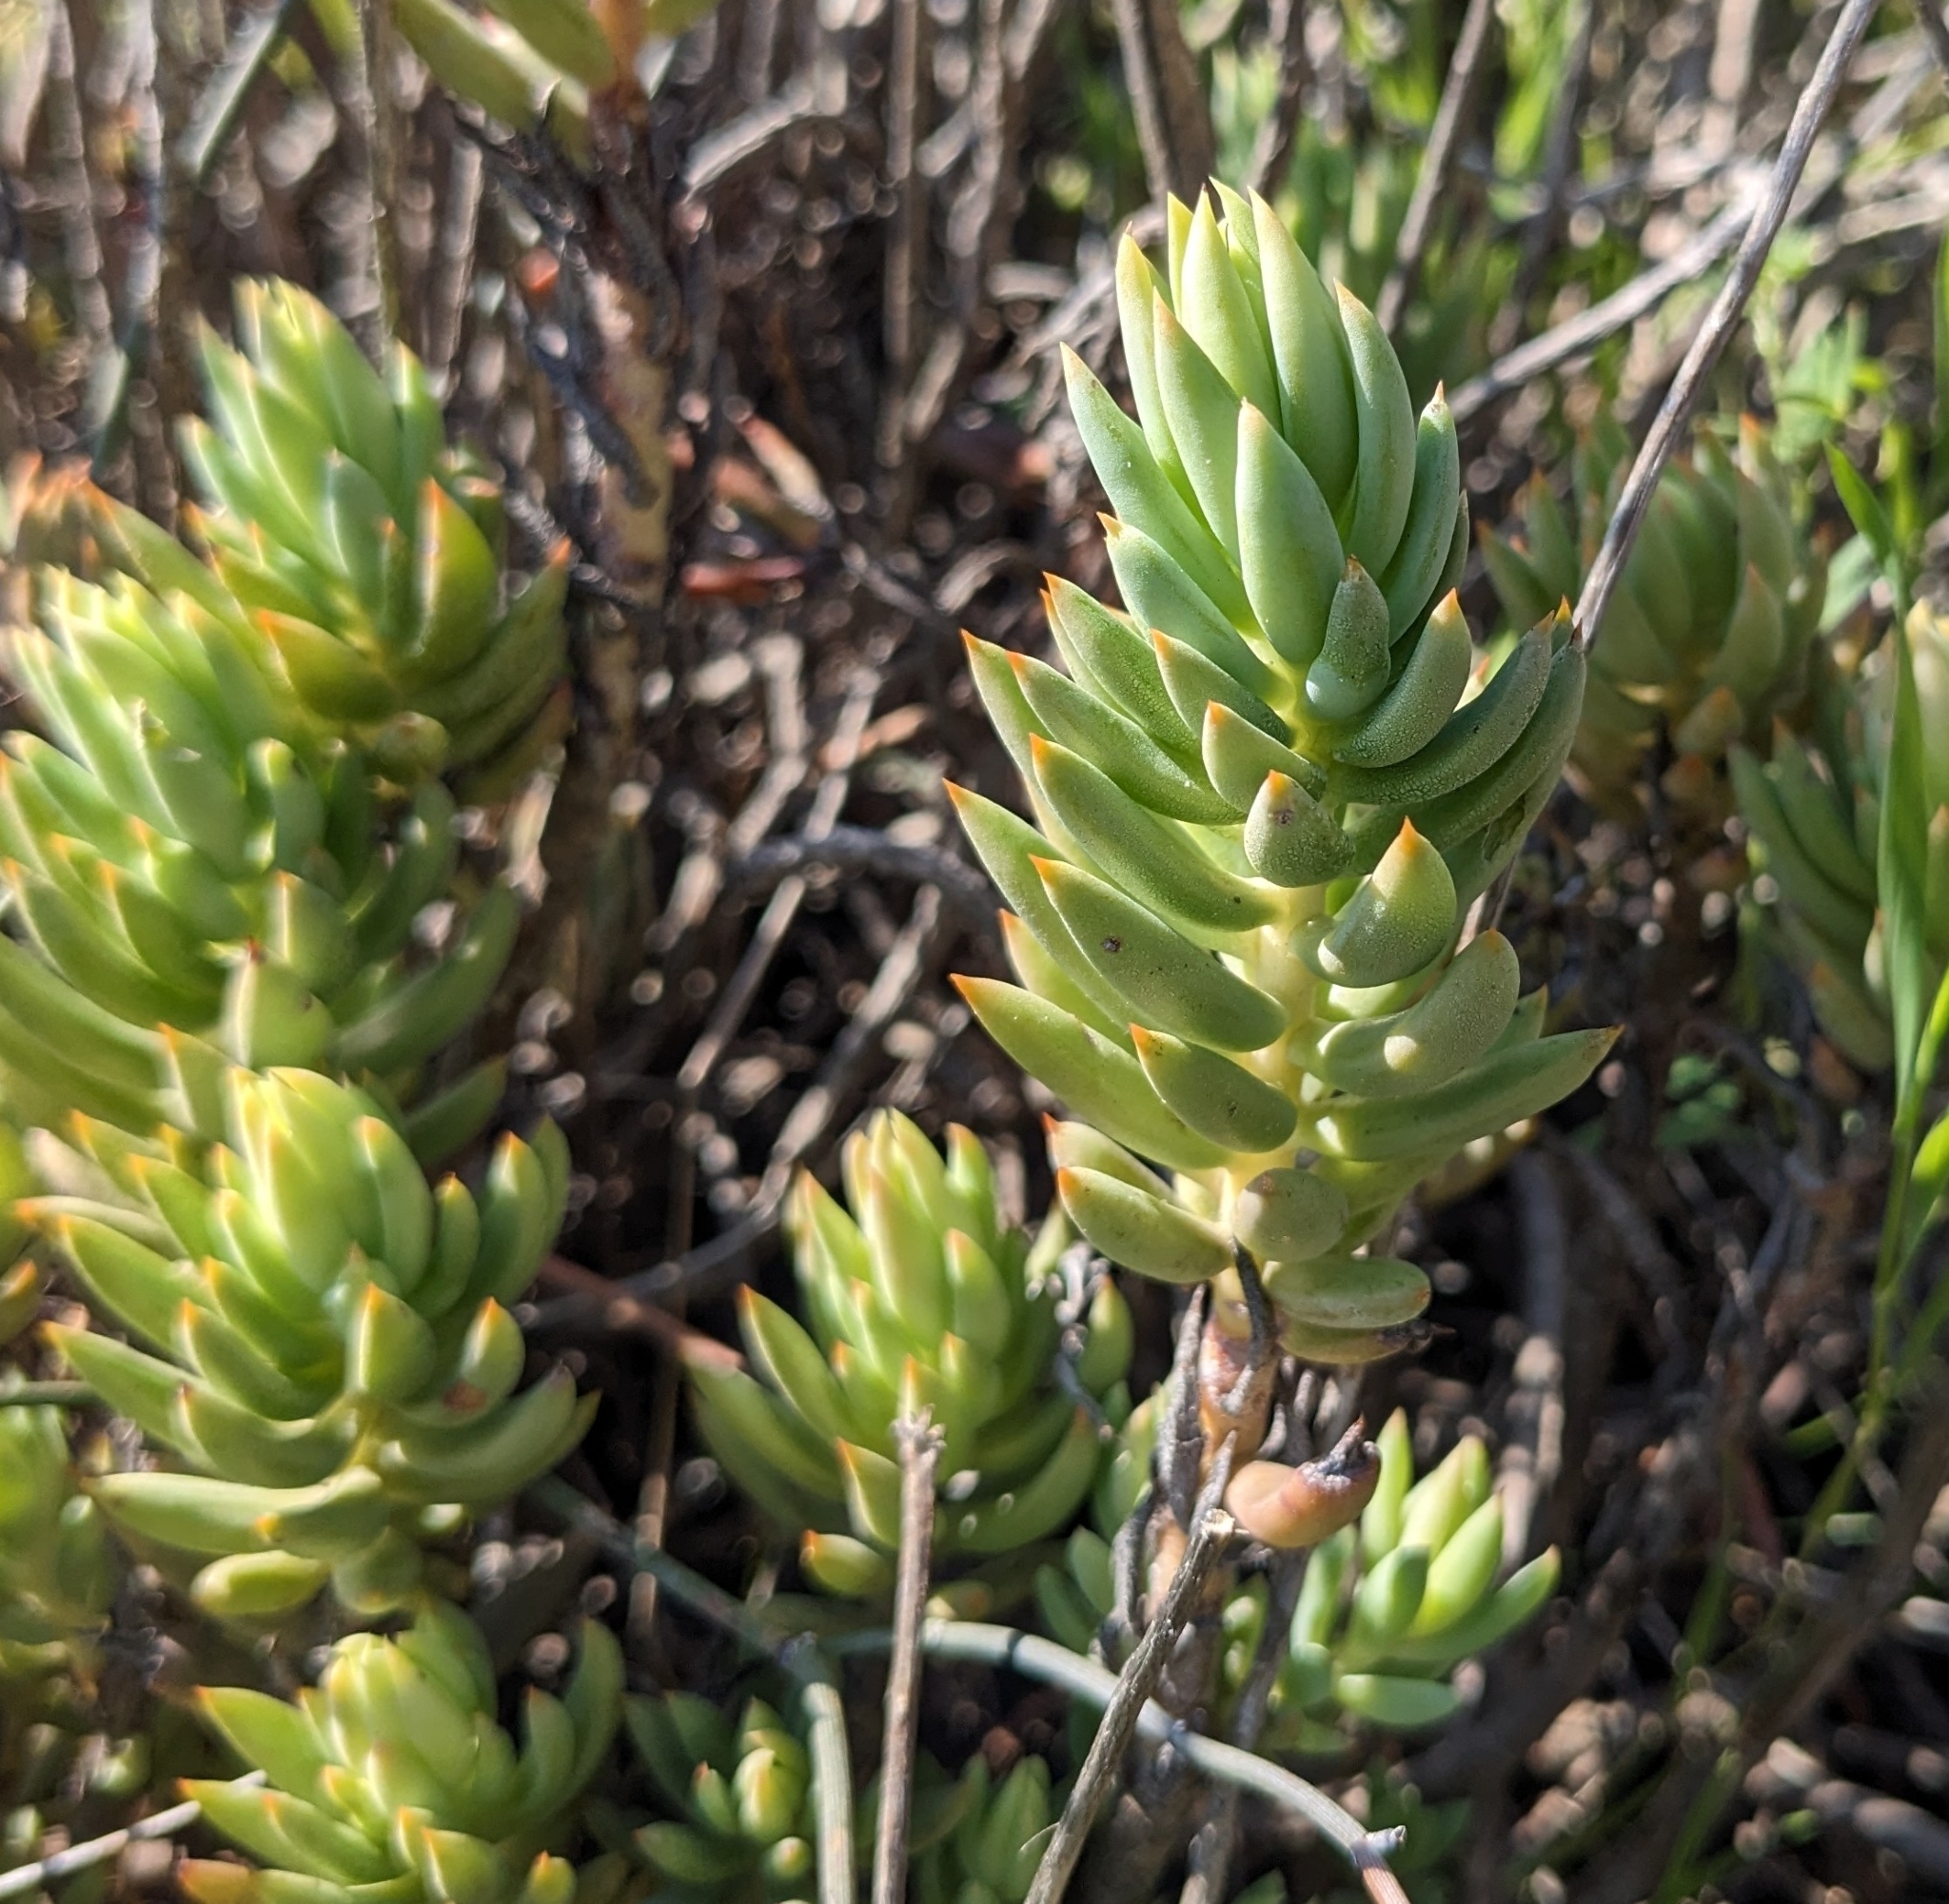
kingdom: Plantae
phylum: Tracheophyta
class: Magnoliopsida
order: Saxifragales
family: Crassulaceae
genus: Petrosedum
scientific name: Petrosedum sediforme
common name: Pale stonecrop
